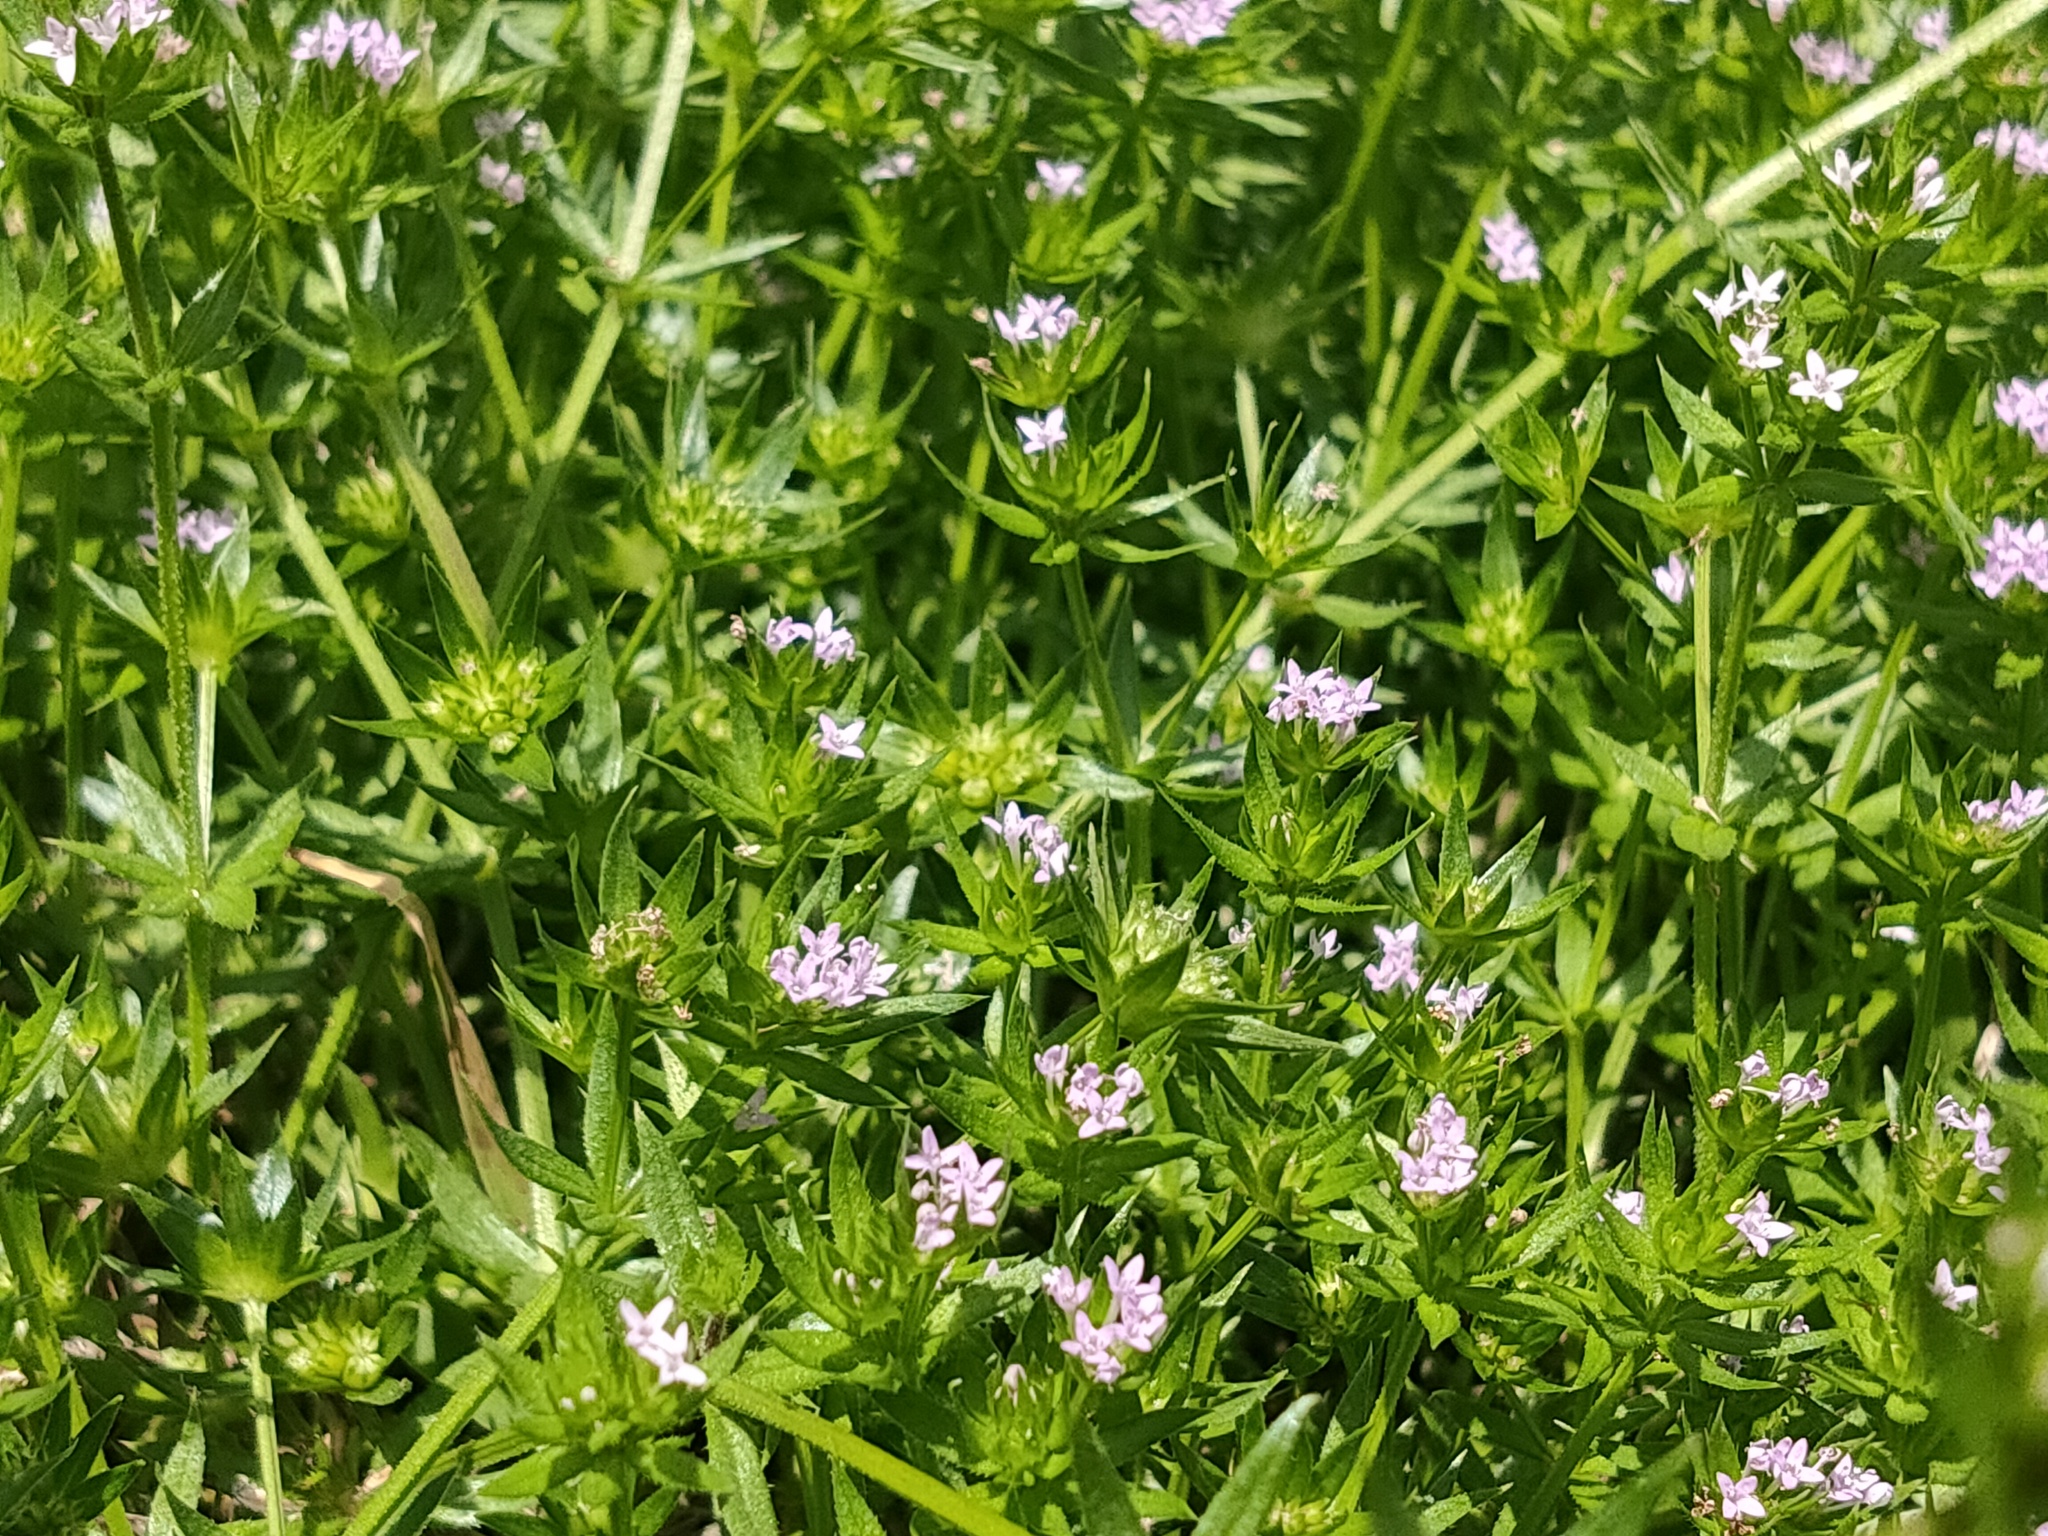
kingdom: Plantae
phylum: Tracheophyta
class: Magnoliopsida
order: Gentianales
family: Rubiaceae
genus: Sherardia
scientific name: Sherardia arvensis
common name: Field madder
